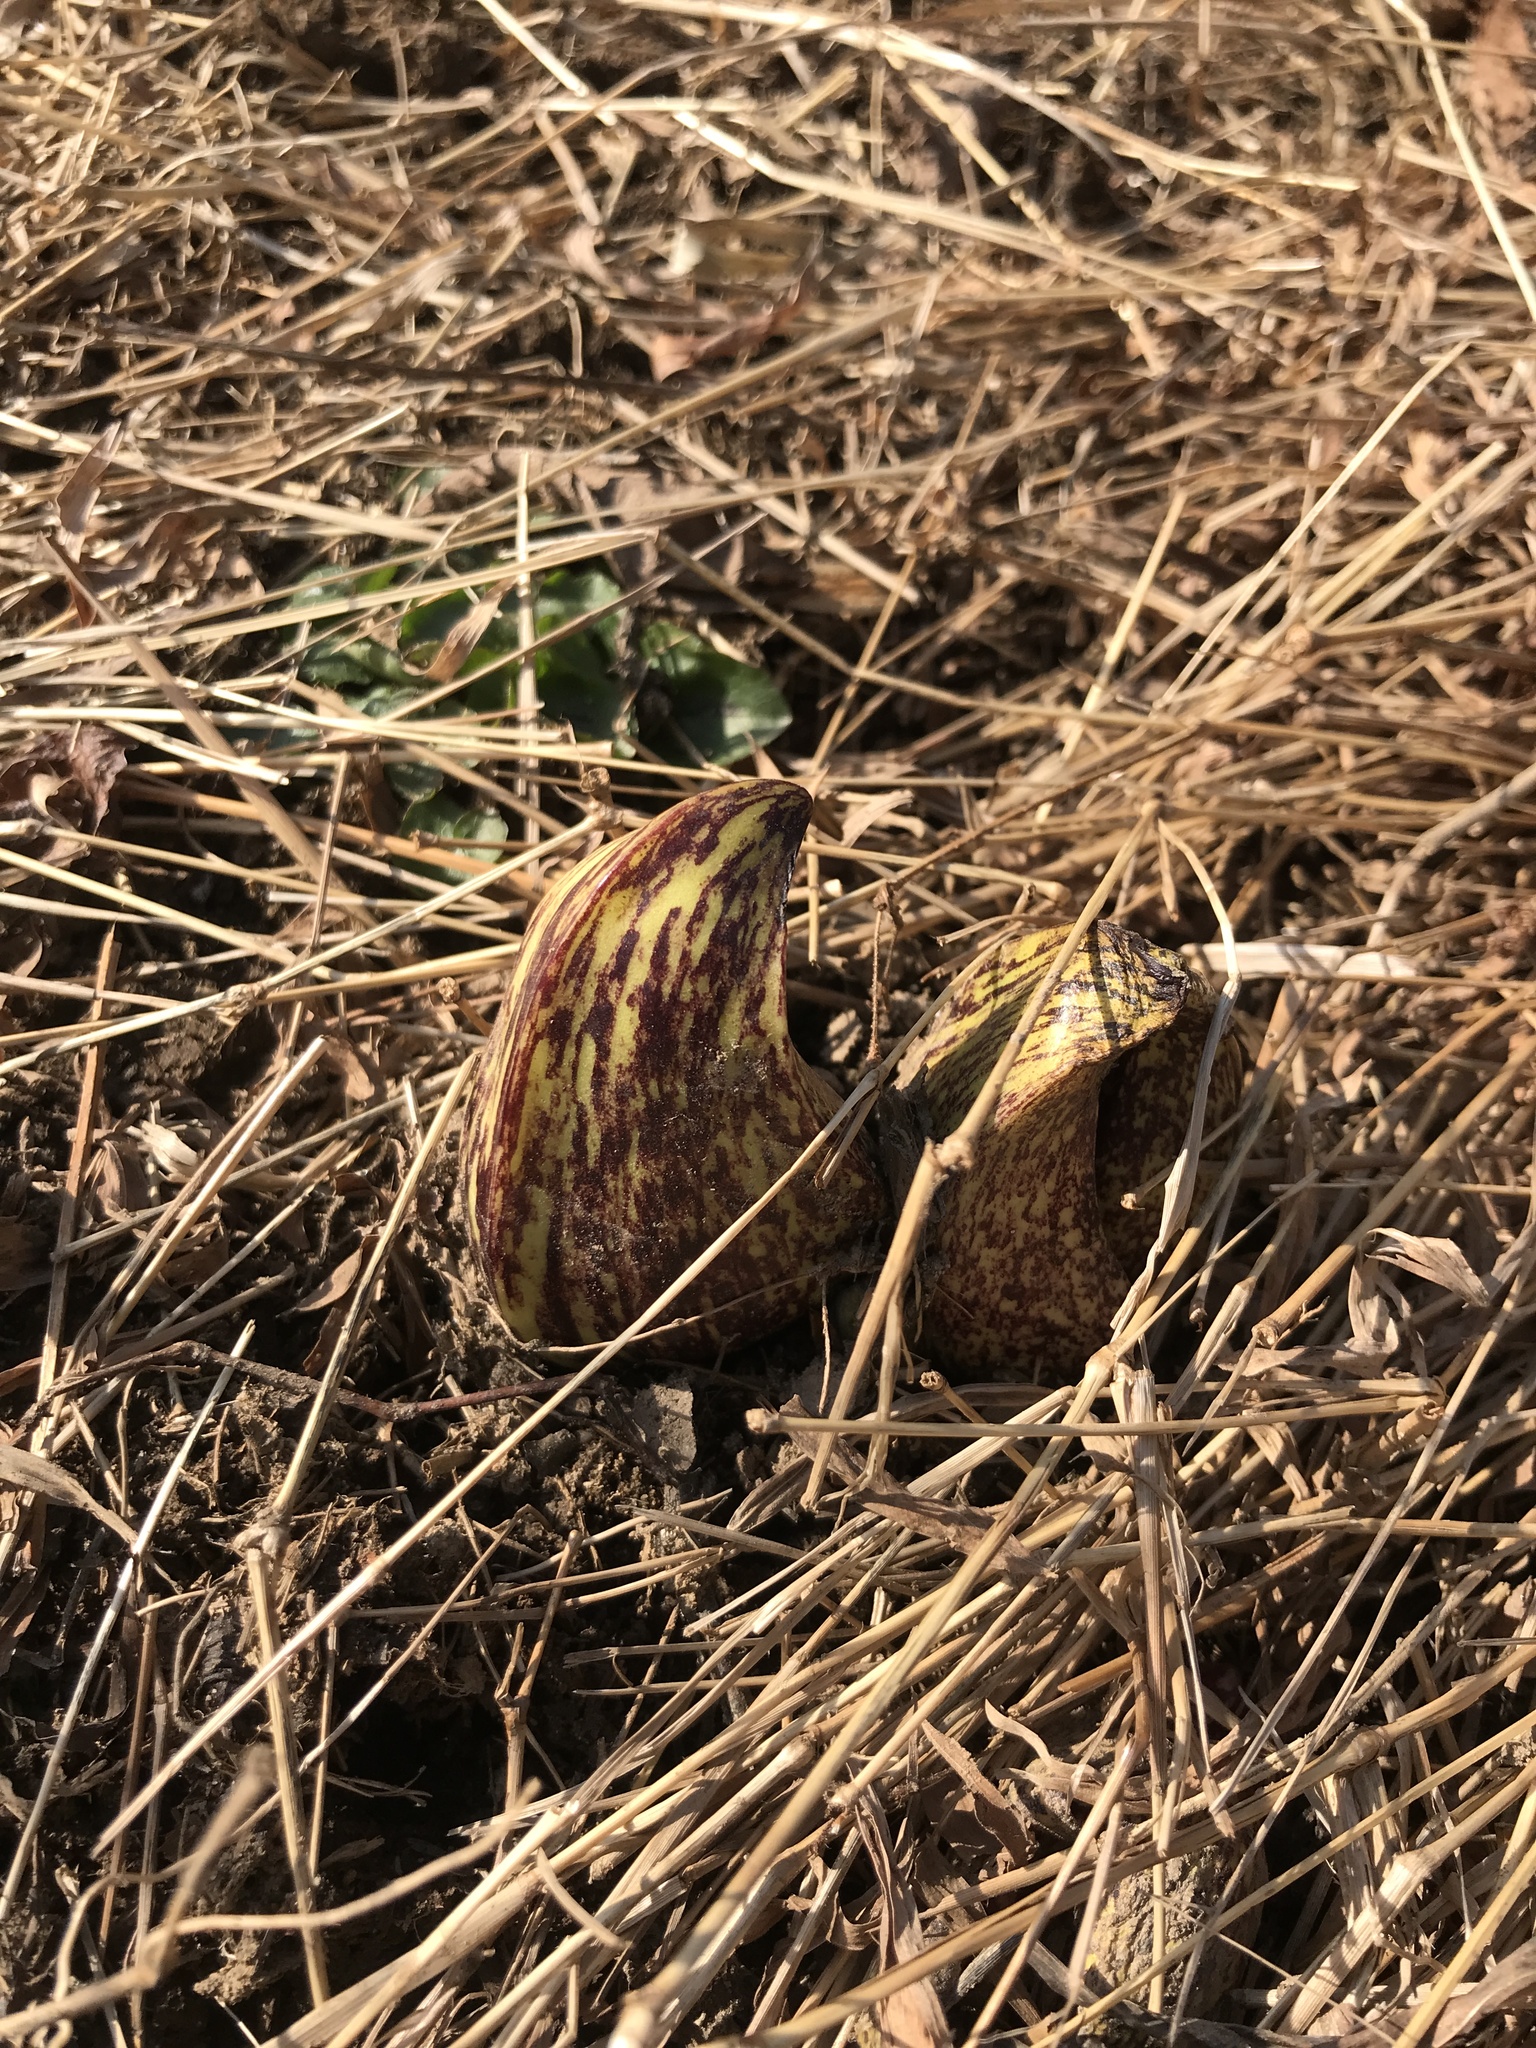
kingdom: Plantae
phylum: Tracheophyta
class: Liliopsida
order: Alismatales
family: Araceae
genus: Symplocarpus
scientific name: Symplocarpus foetidus
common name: Eastern skunk cabbage
